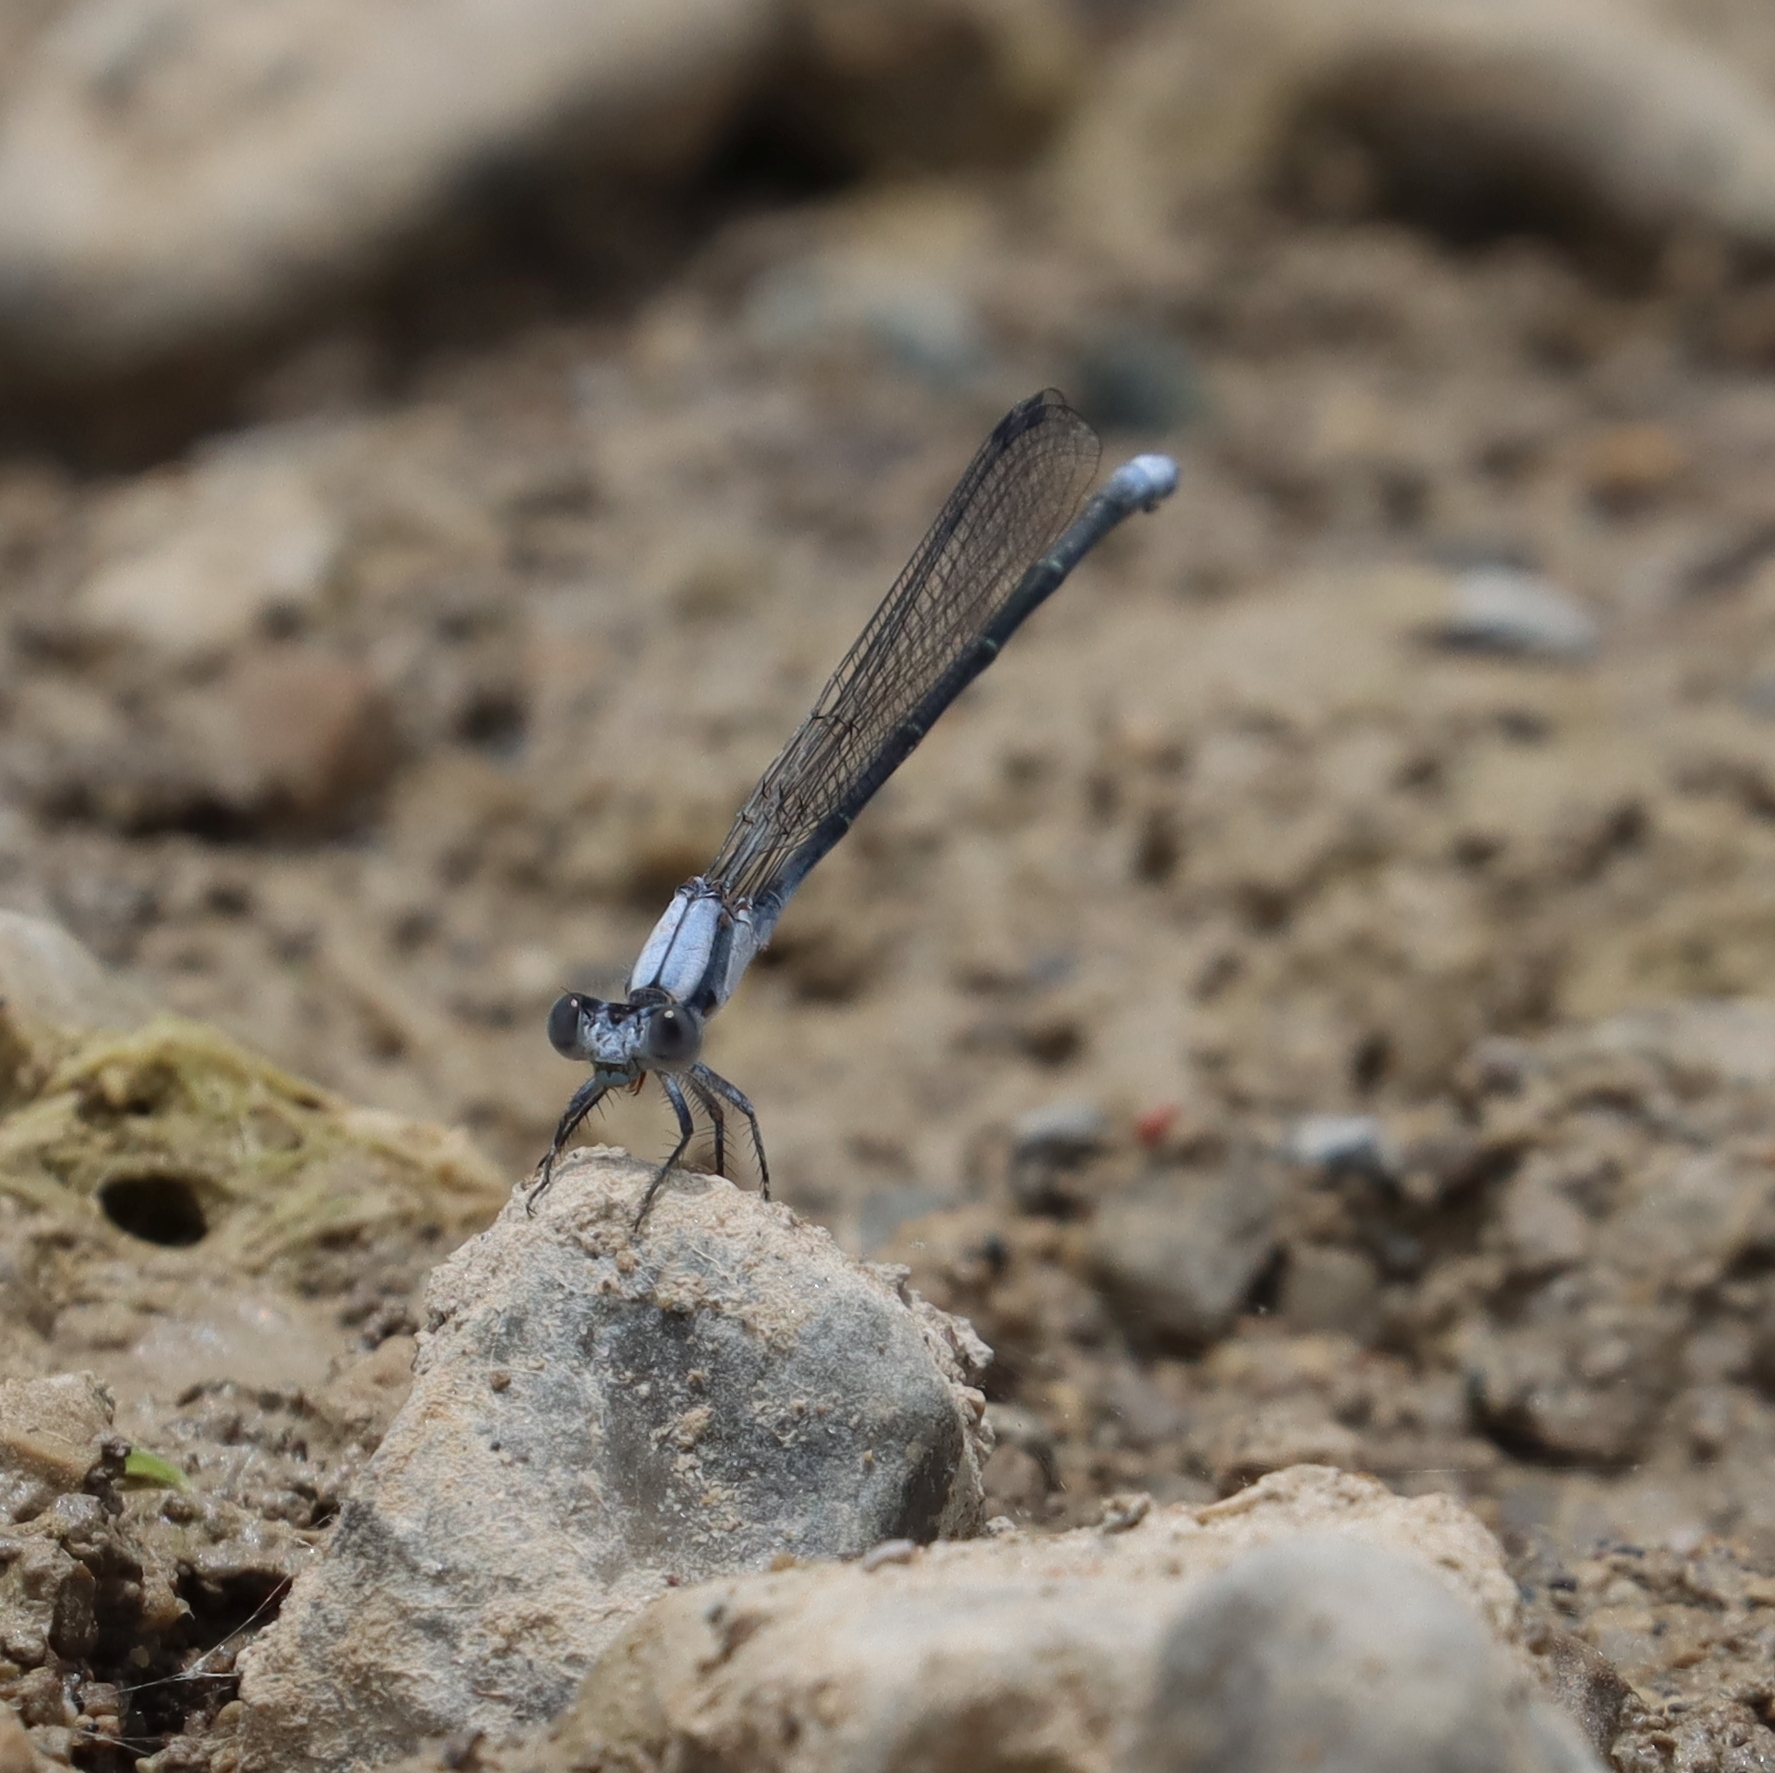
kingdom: Animalia
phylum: Arthropoda
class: Insecta
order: Odonata
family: Coenagrionidae
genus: Argia
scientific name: Argia moesta
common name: Powdered dancer
